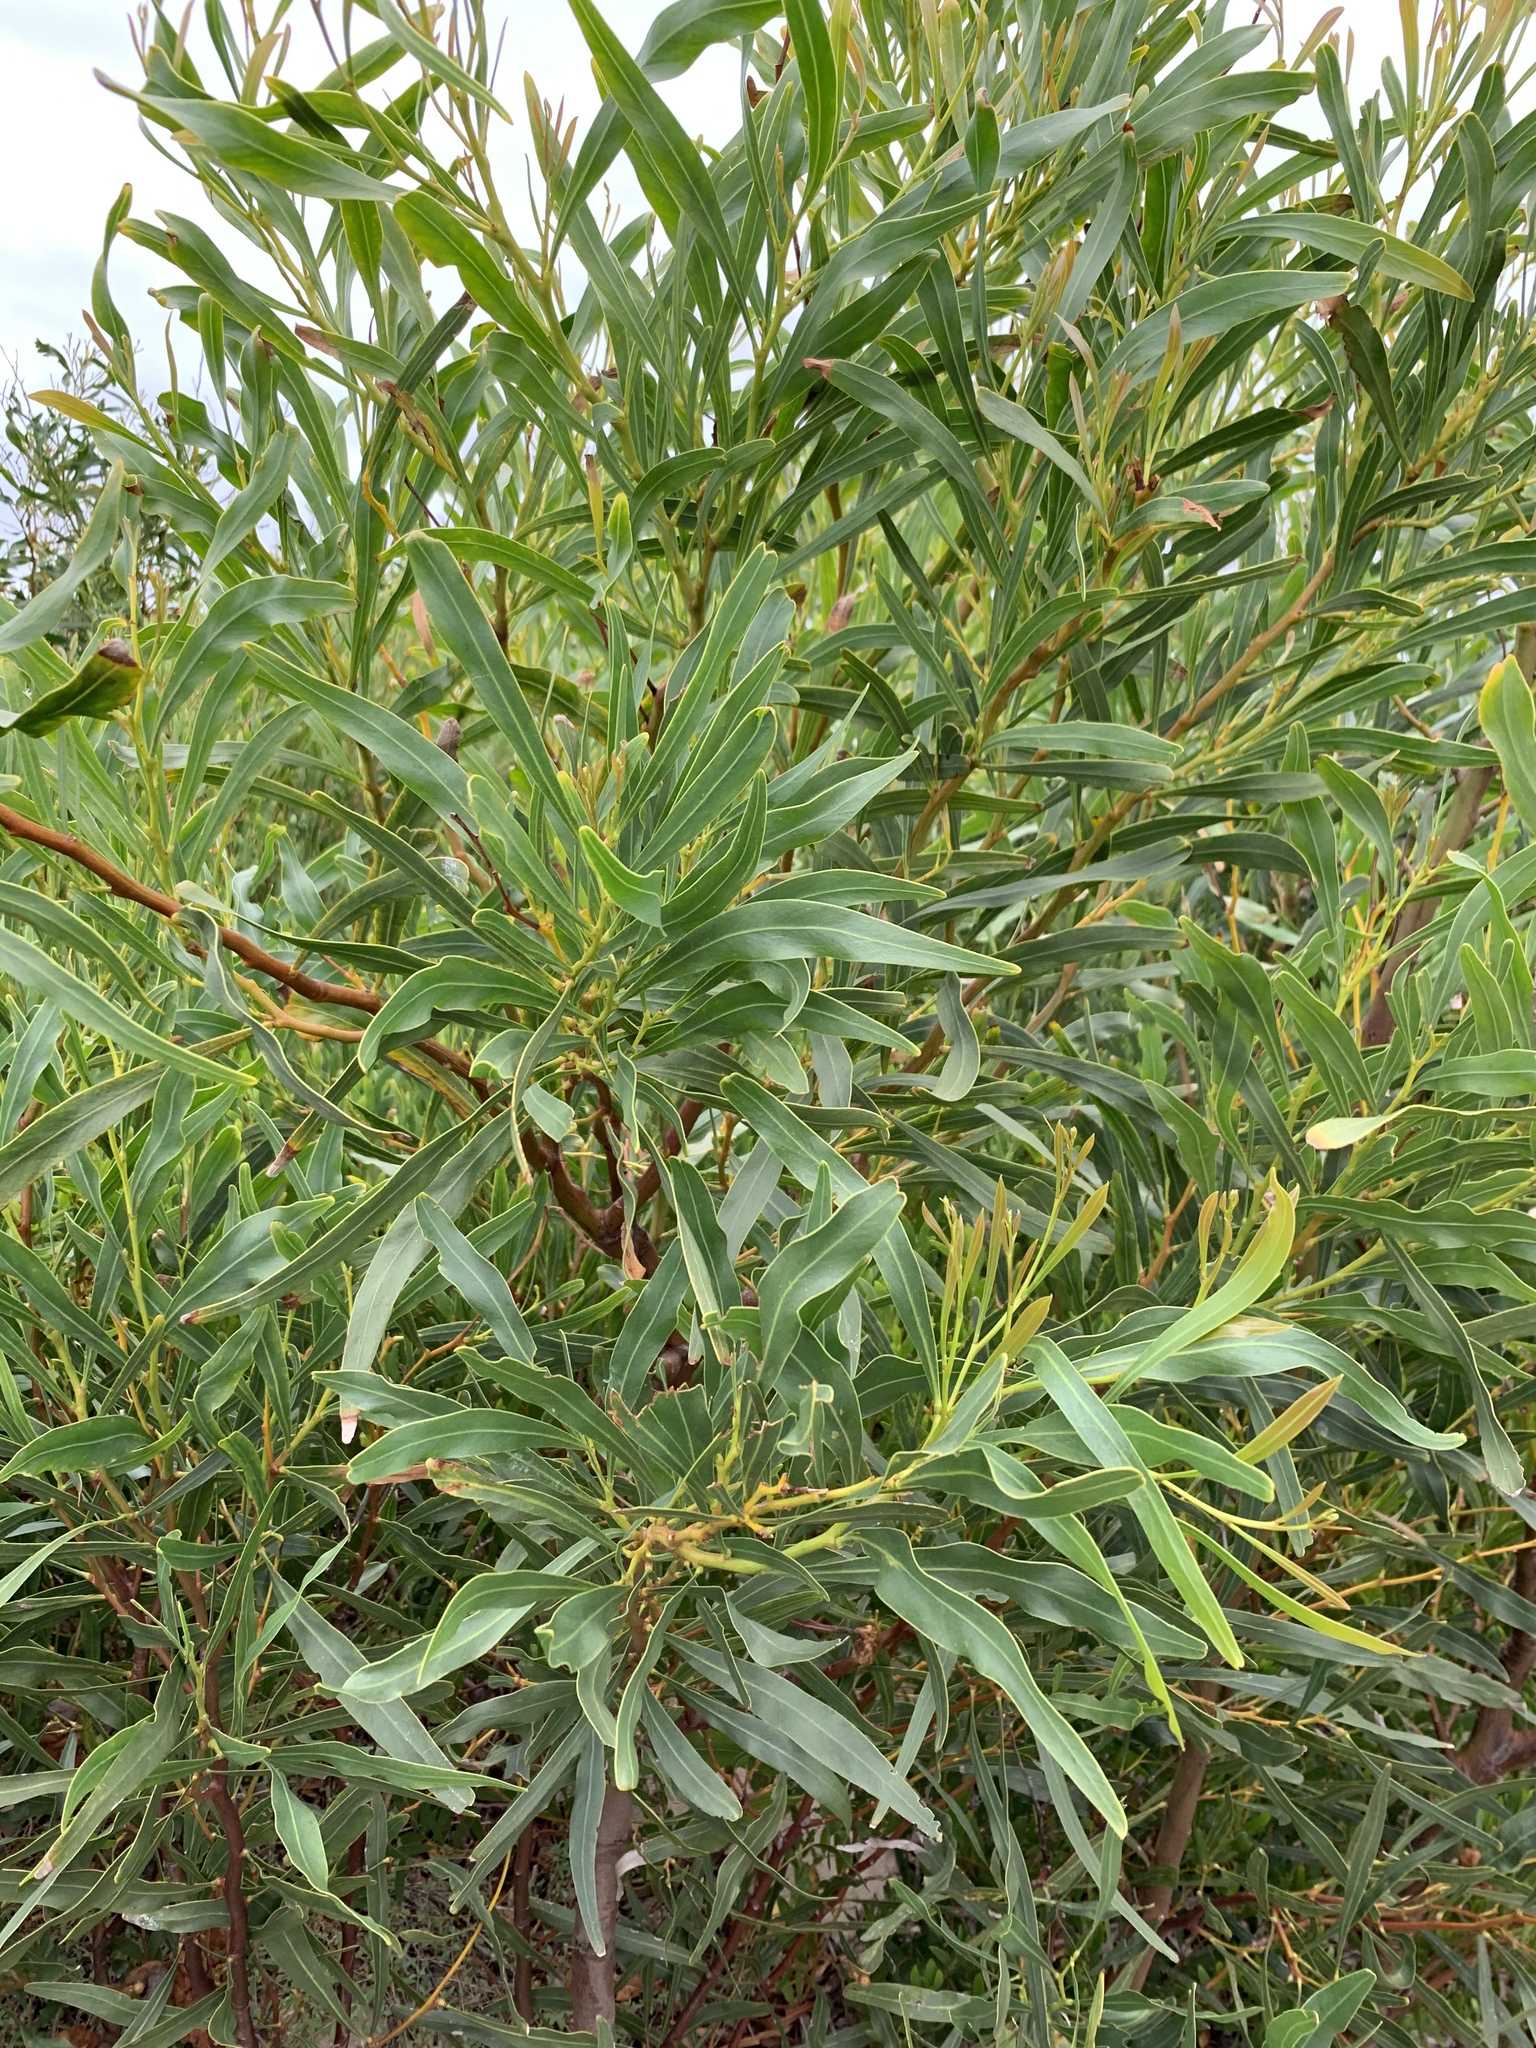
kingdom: Plantae
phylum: Tracheophyta
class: Magnoliopsida
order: Fabales
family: Fabaceae
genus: Acacia
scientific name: Acacia saligna
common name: Orange wattle
